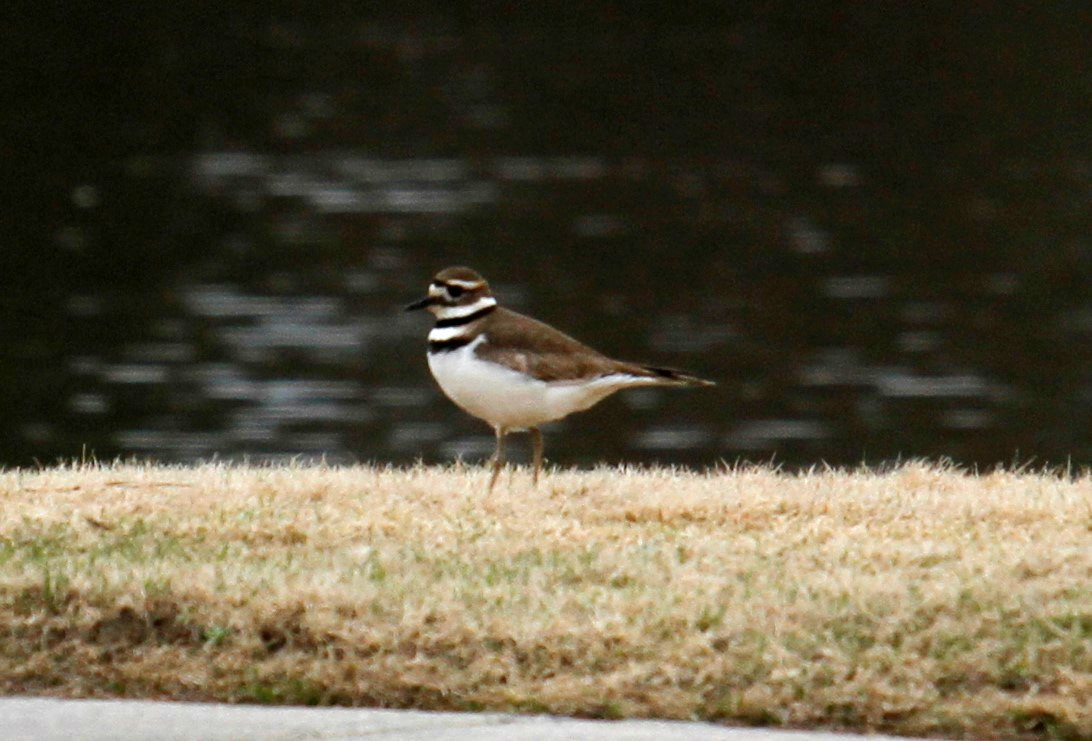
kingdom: Animalia
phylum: Chordata
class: Aves
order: Charadriiformes
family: Charadriidae
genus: Charadrius
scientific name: Charadrius vociferus
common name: Killdeer
